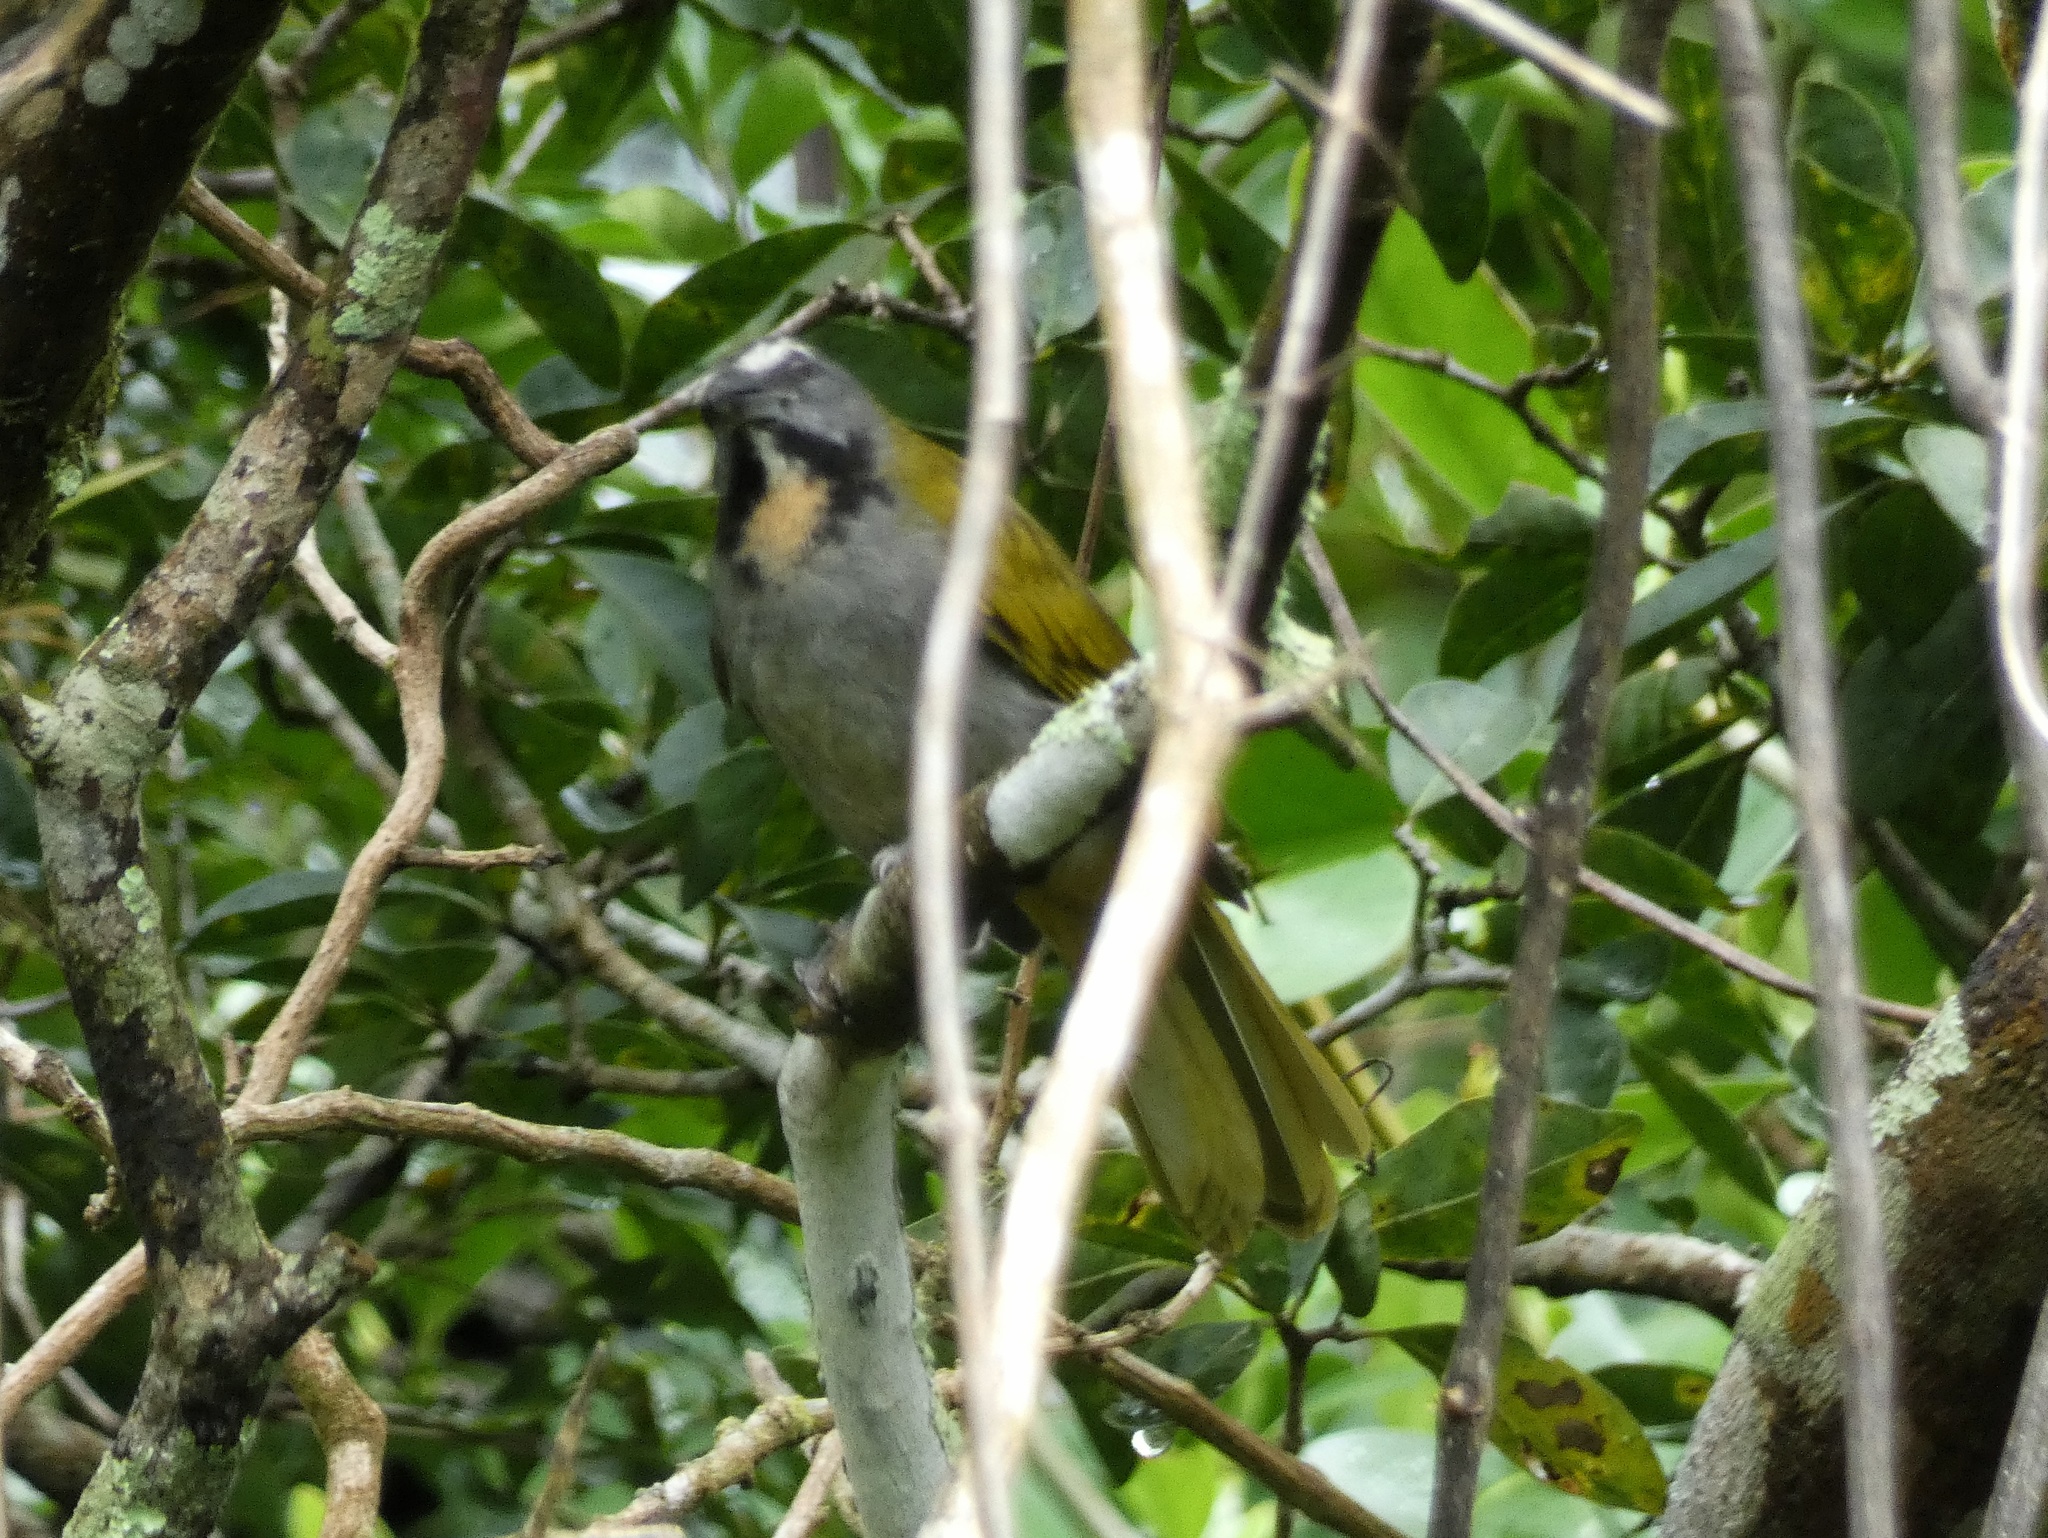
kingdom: Animalia
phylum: Chordata
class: Aves
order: Passeriformes
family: Thraupidae
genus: Saltator
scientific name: Saltator maximus
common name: Buff-throated saltator
